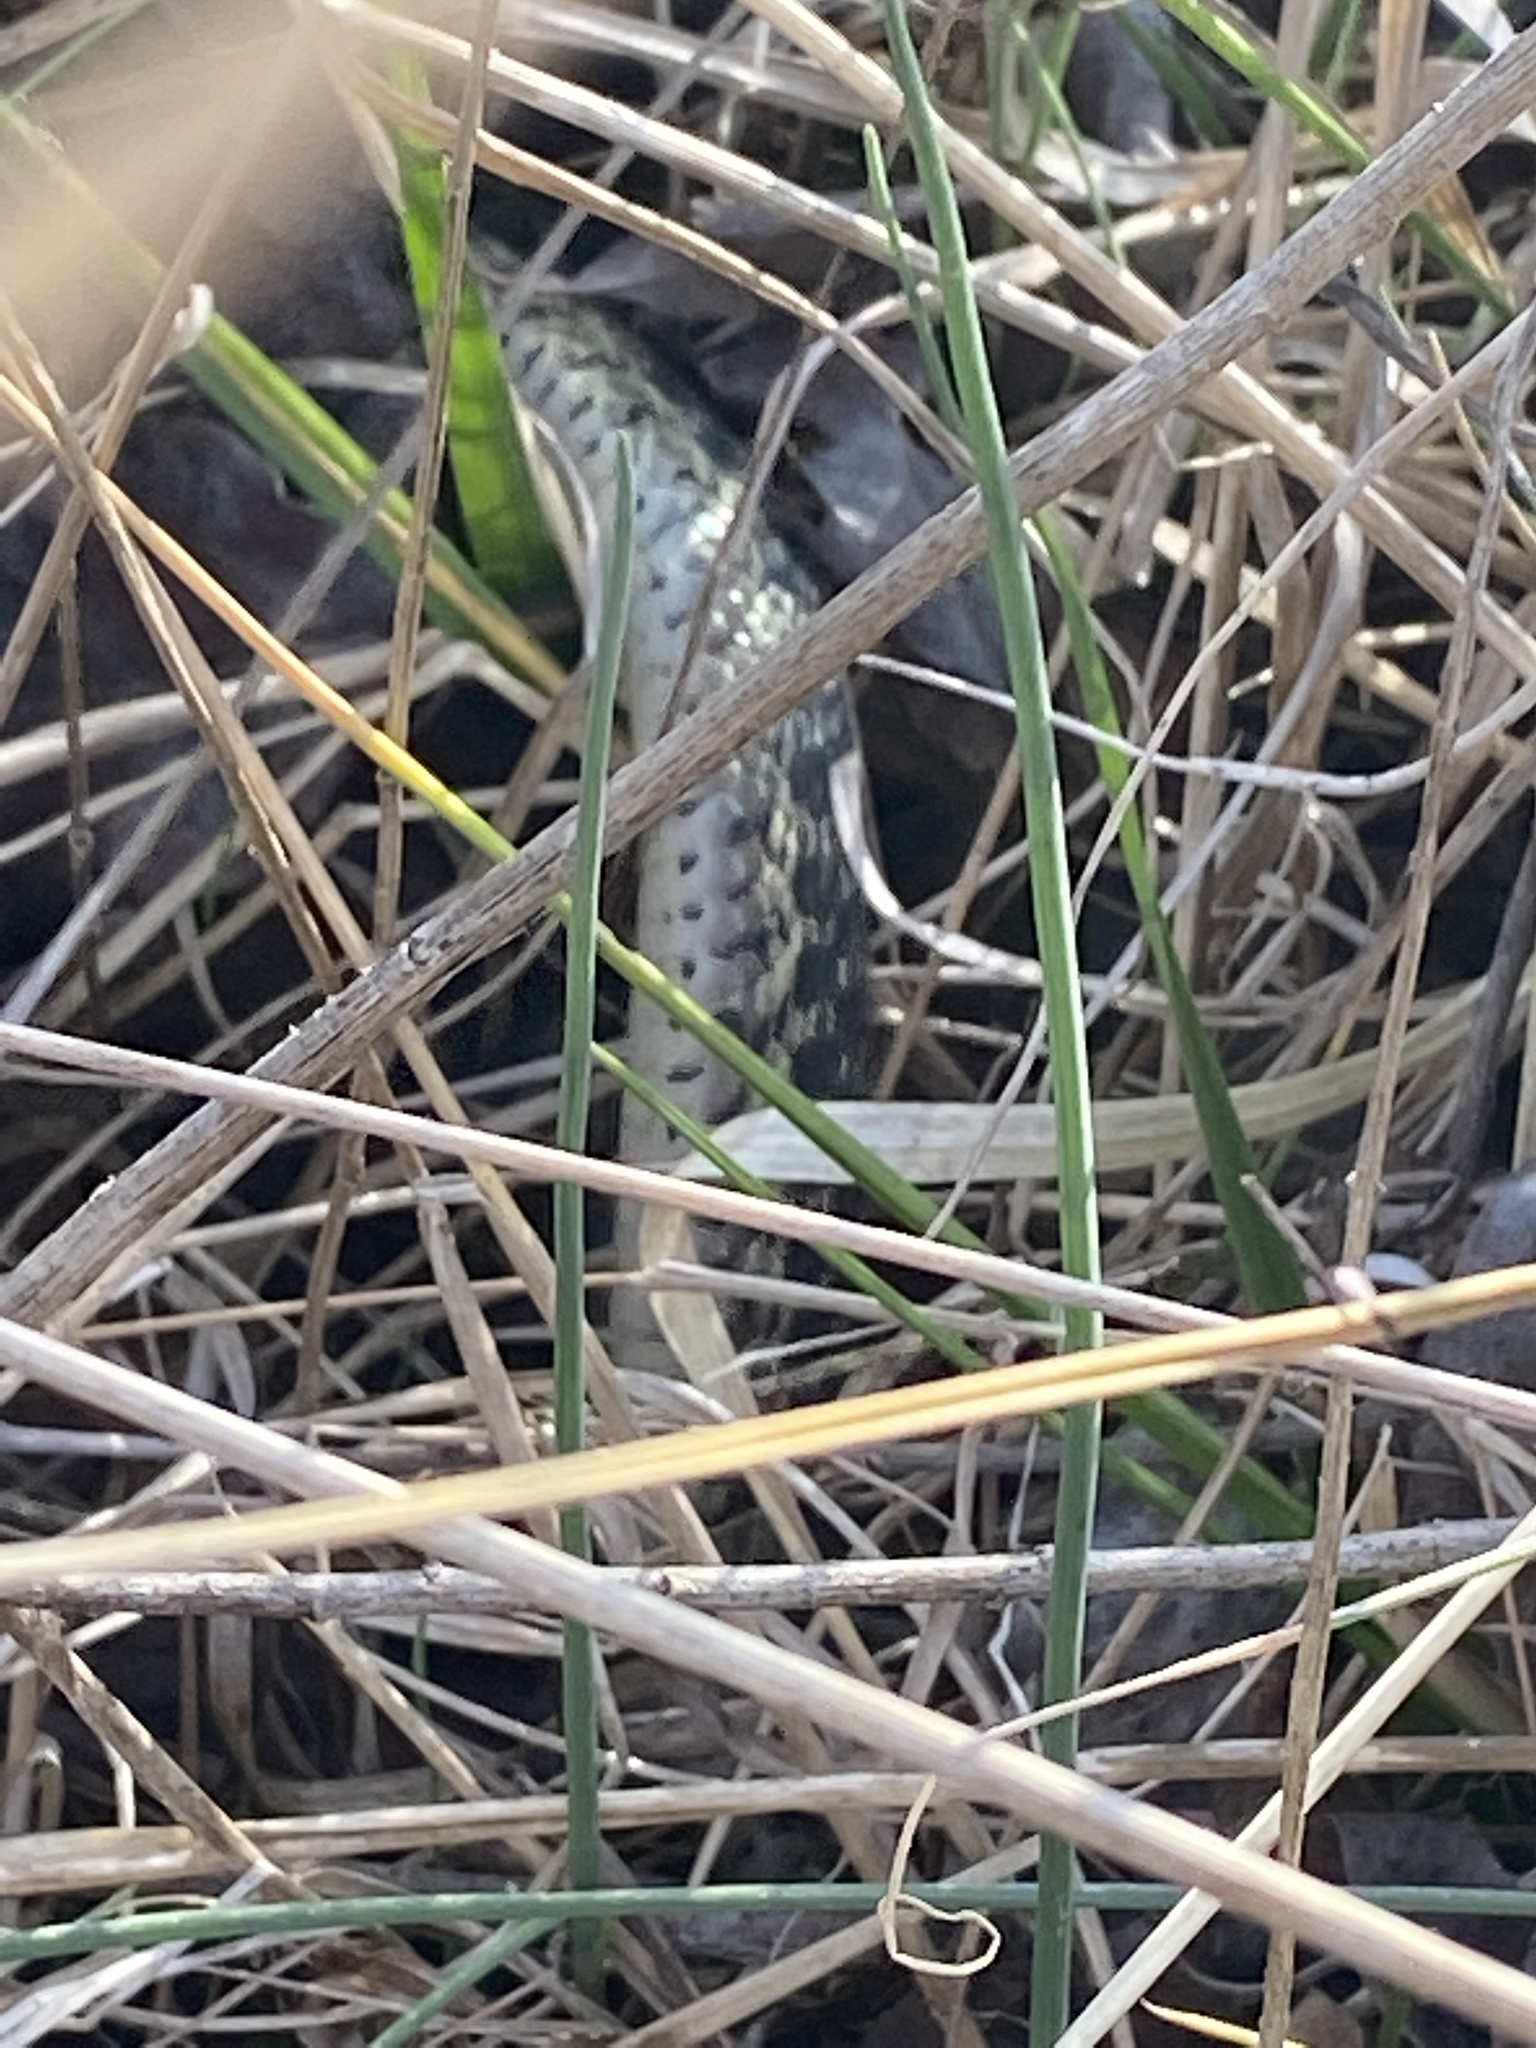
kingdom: Animalia
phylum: Chordata
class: Squamata
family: Colubridae
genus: Thamnophis
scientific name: Thamnophis sirtalis
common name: Common garter snake
